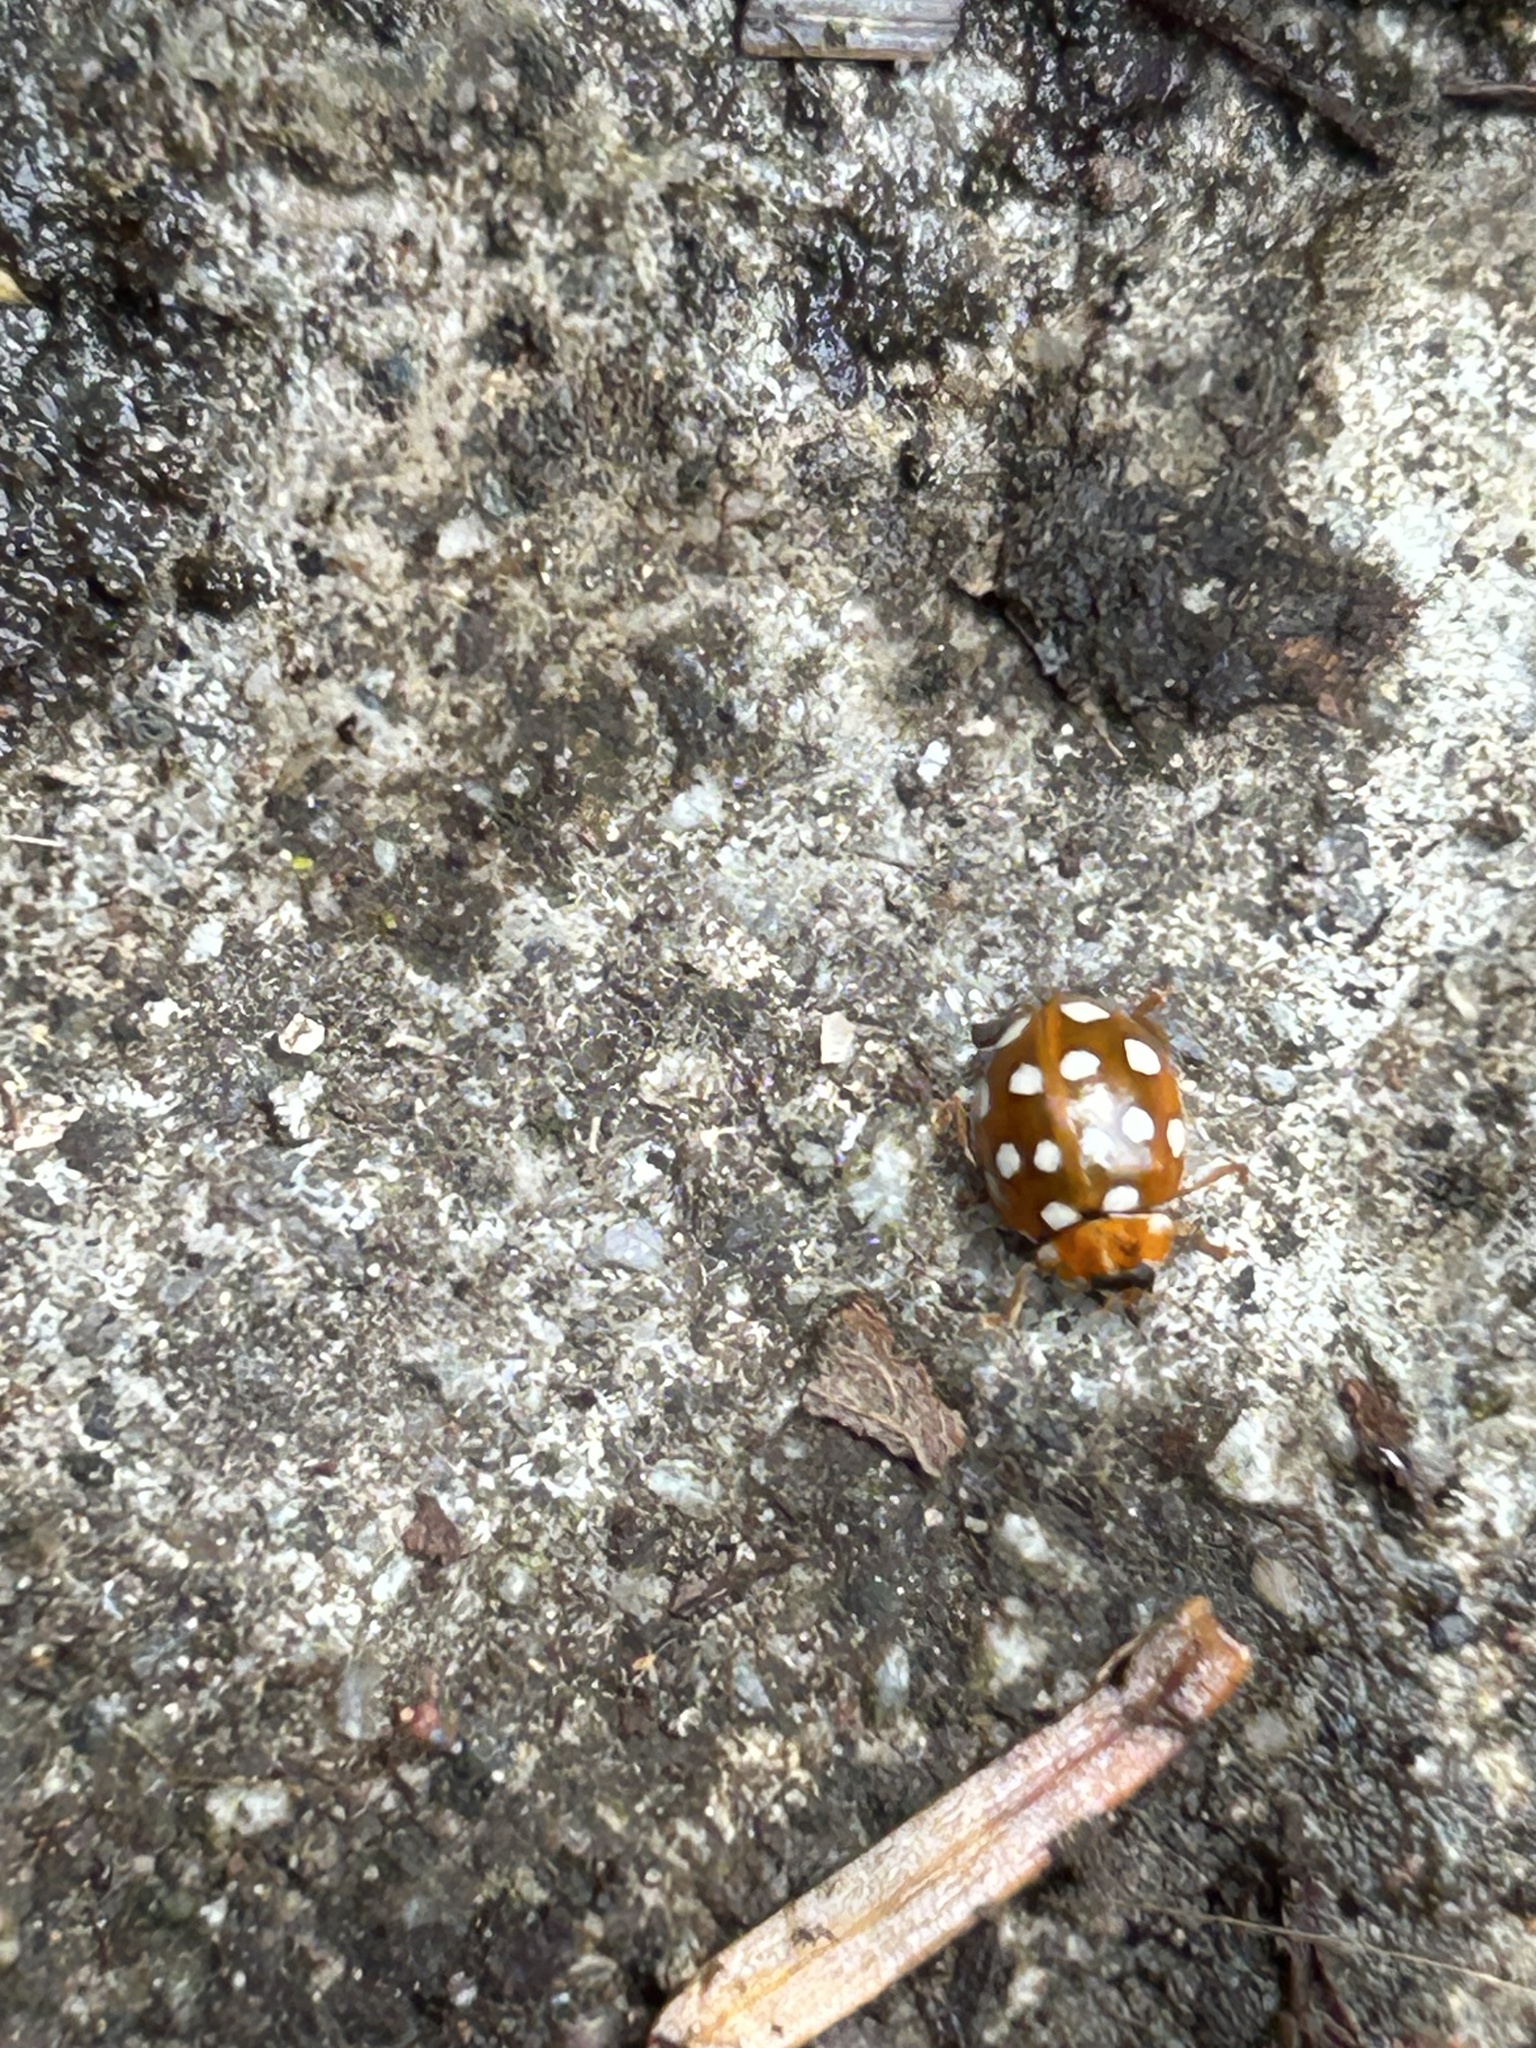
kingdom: Animalia
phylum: Arthropoda
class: Insecta
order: Coleoptera
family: Coccinellidae
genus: Calvia
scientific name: Calvia quatuordecimguttata
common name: Cream-spot ladybird
